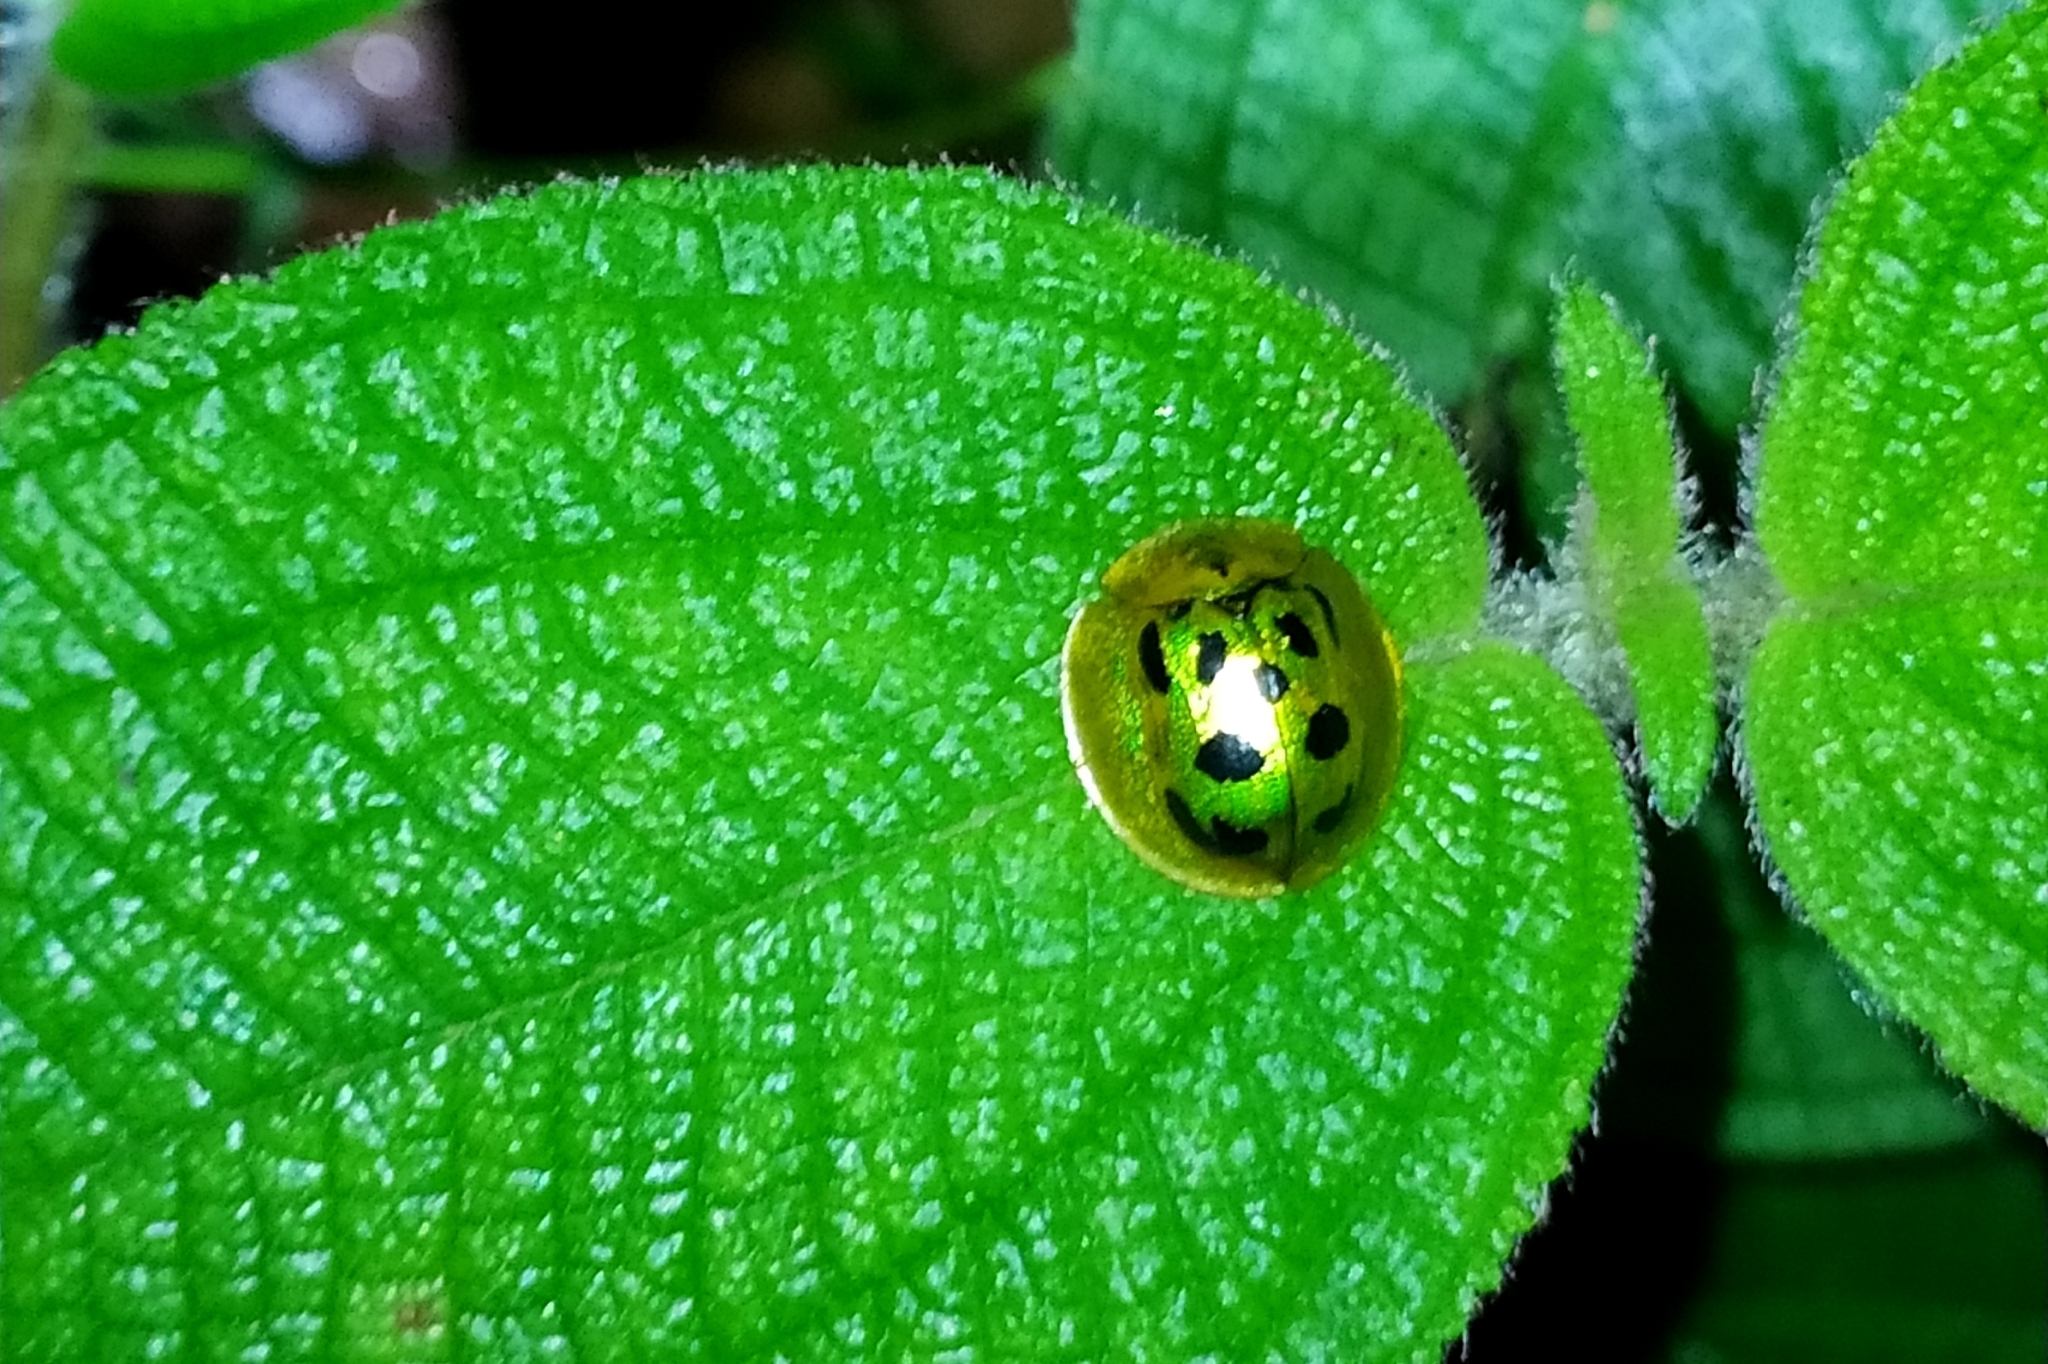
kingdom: Animalia
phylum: Arthropoda
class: Insecta
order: Coleoptera
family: Chrysomelidae
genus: Coptocycla
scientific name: Coptocycla undecimpunctata
